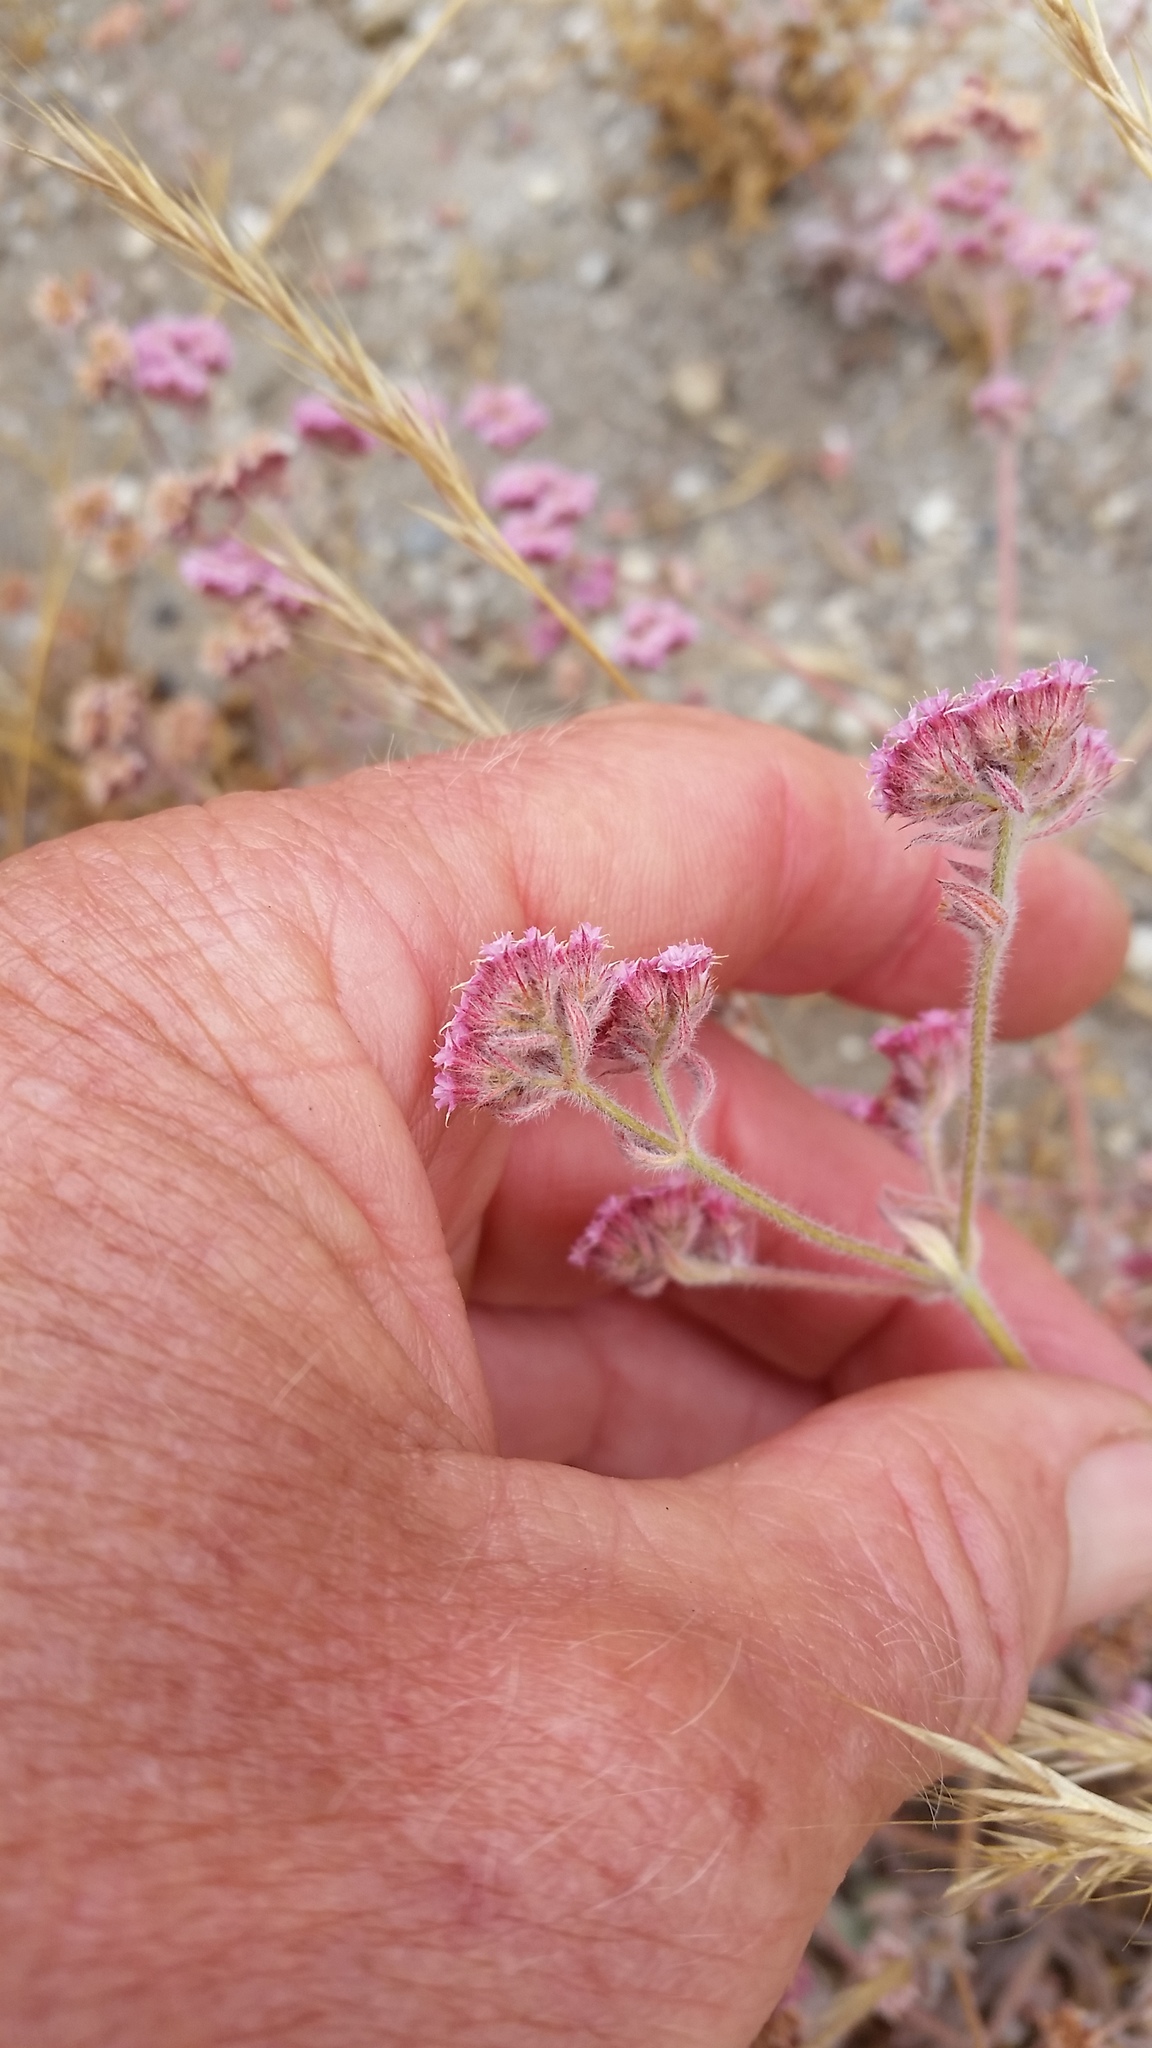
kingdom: Plantae
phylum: Tracheophyta
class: Magnoliopsida
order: Caryophyllales
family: Polygonaceae
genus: Chorizanthe
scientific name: Chorizanthe pungens
